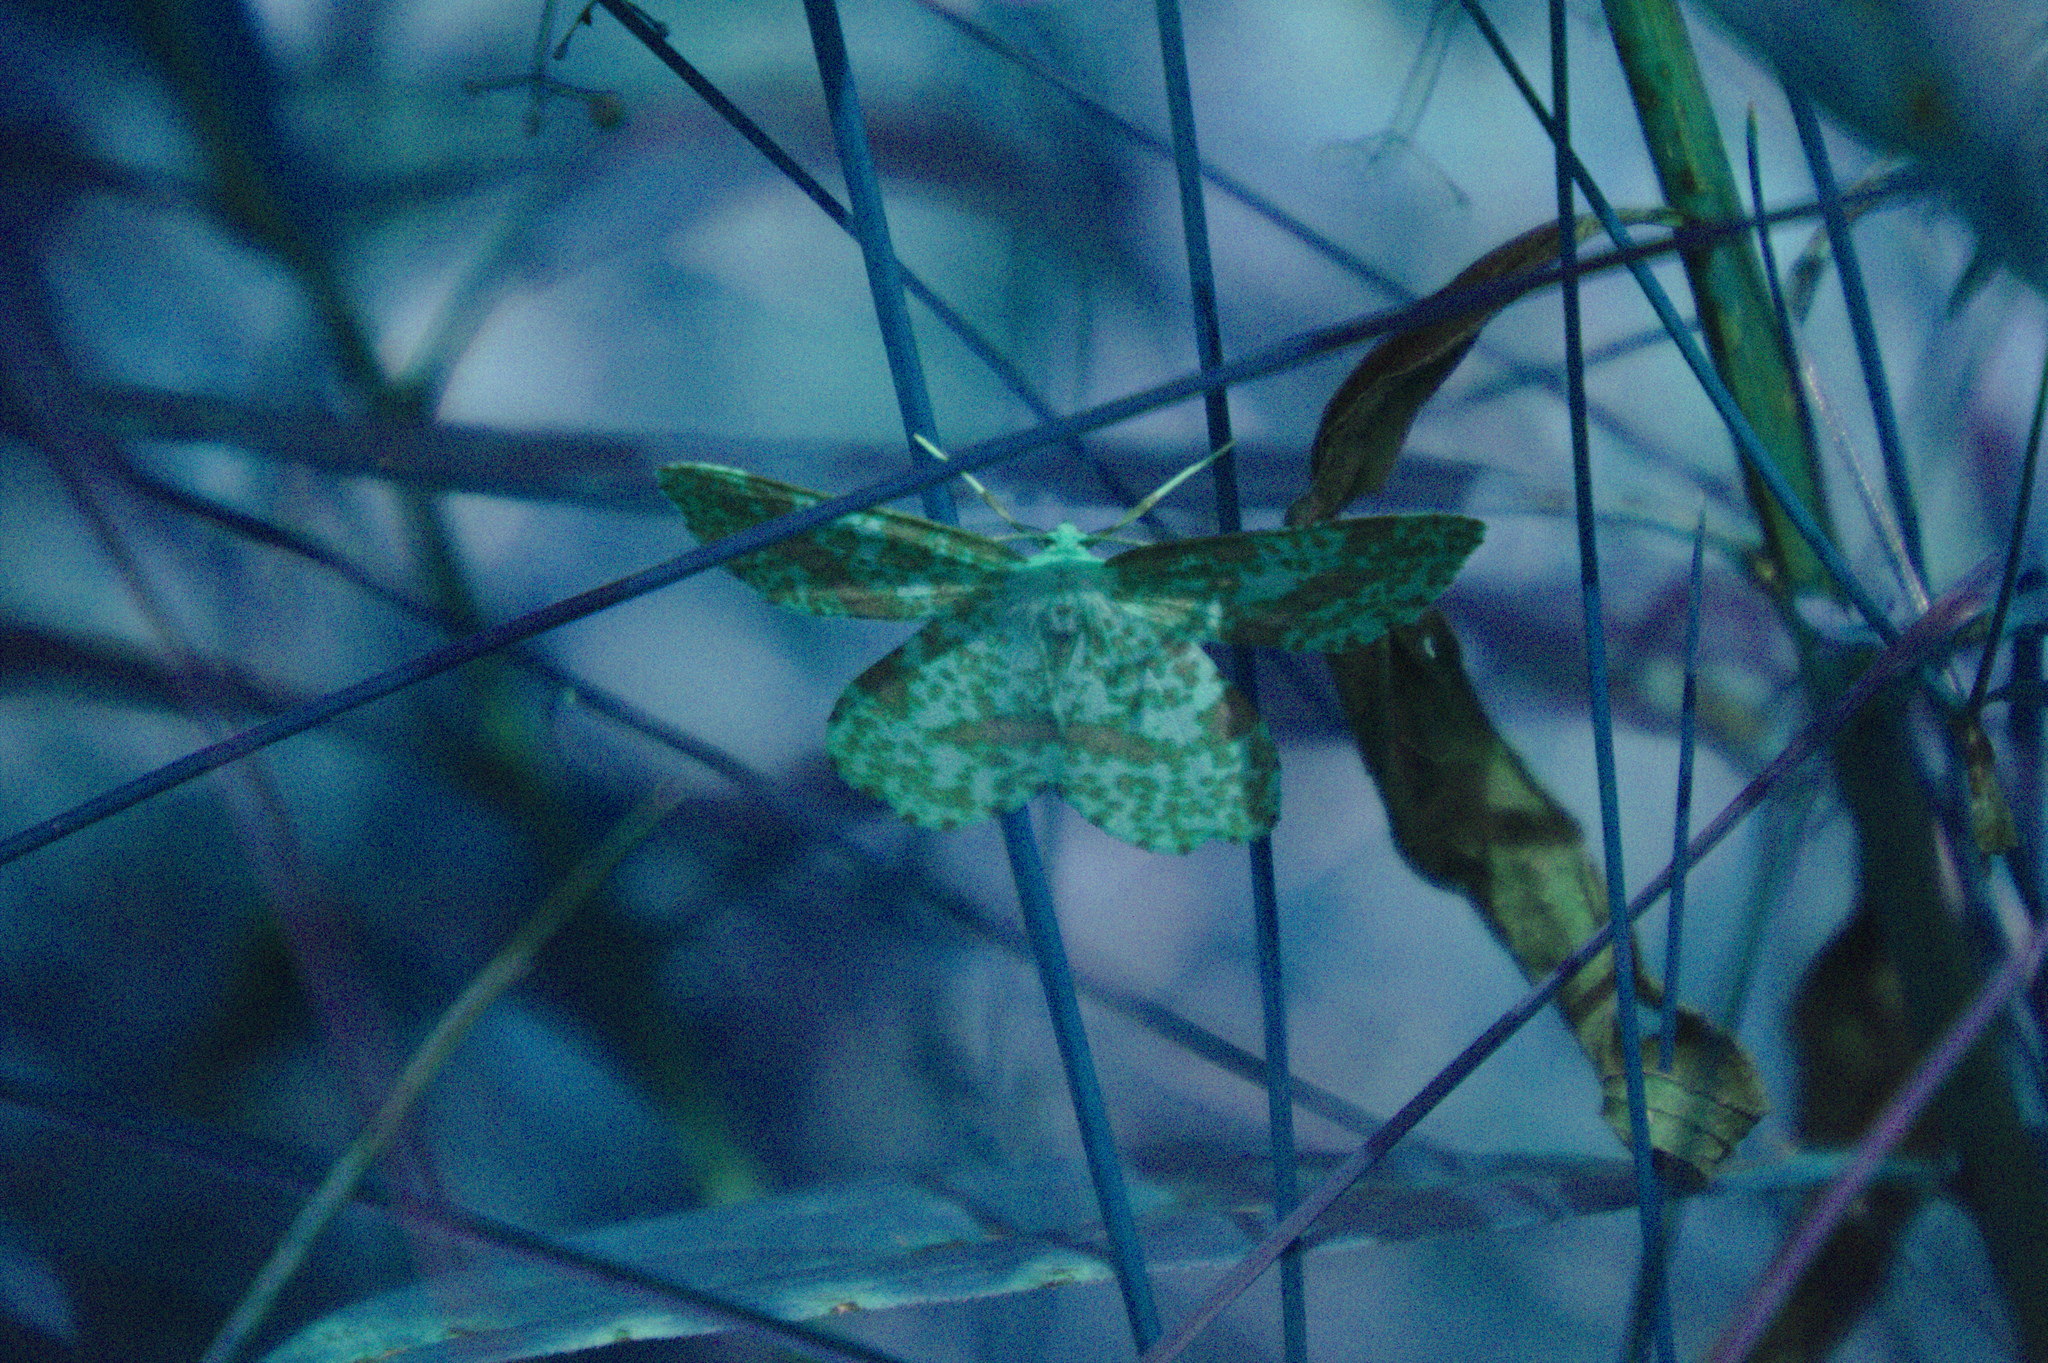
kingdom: Animalia
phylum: Arthropoda
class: Insecta
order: Lepidoptera
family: Geometridae
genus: Xanthotype
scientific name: Xanthotype
